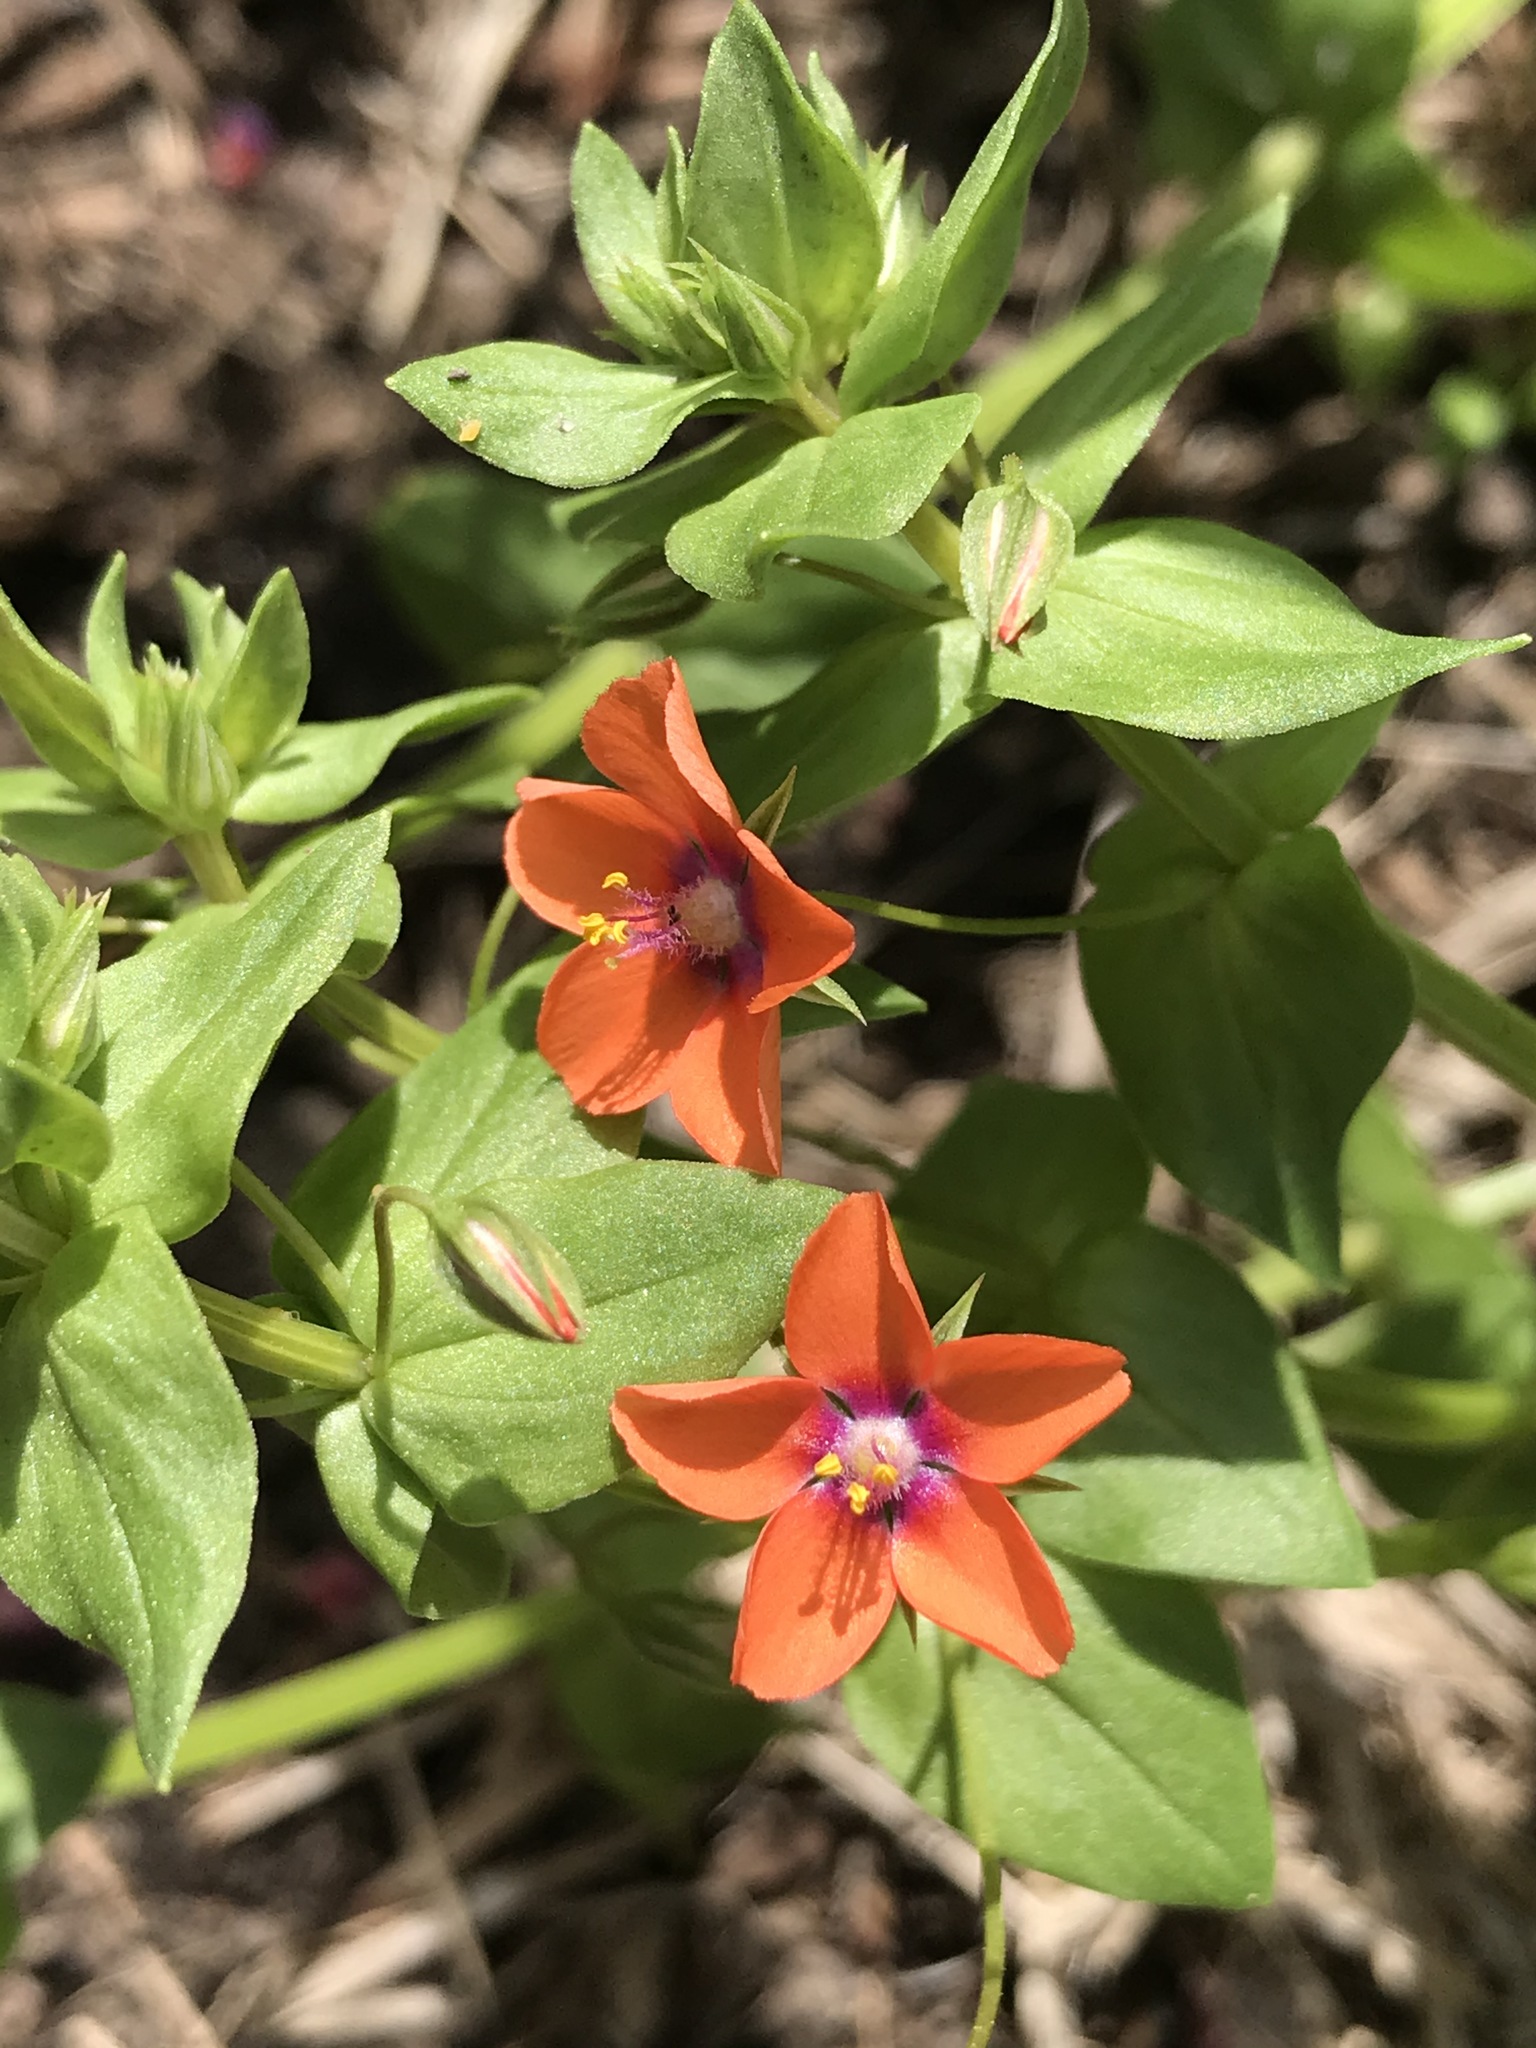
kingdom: Plantae
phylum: Tracheophyta
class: Magnoliopsida
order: Ericales
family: Primulaceae
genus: Lysimachia
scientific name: Lysimachia arvensis
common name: Scarlet pimpernel
